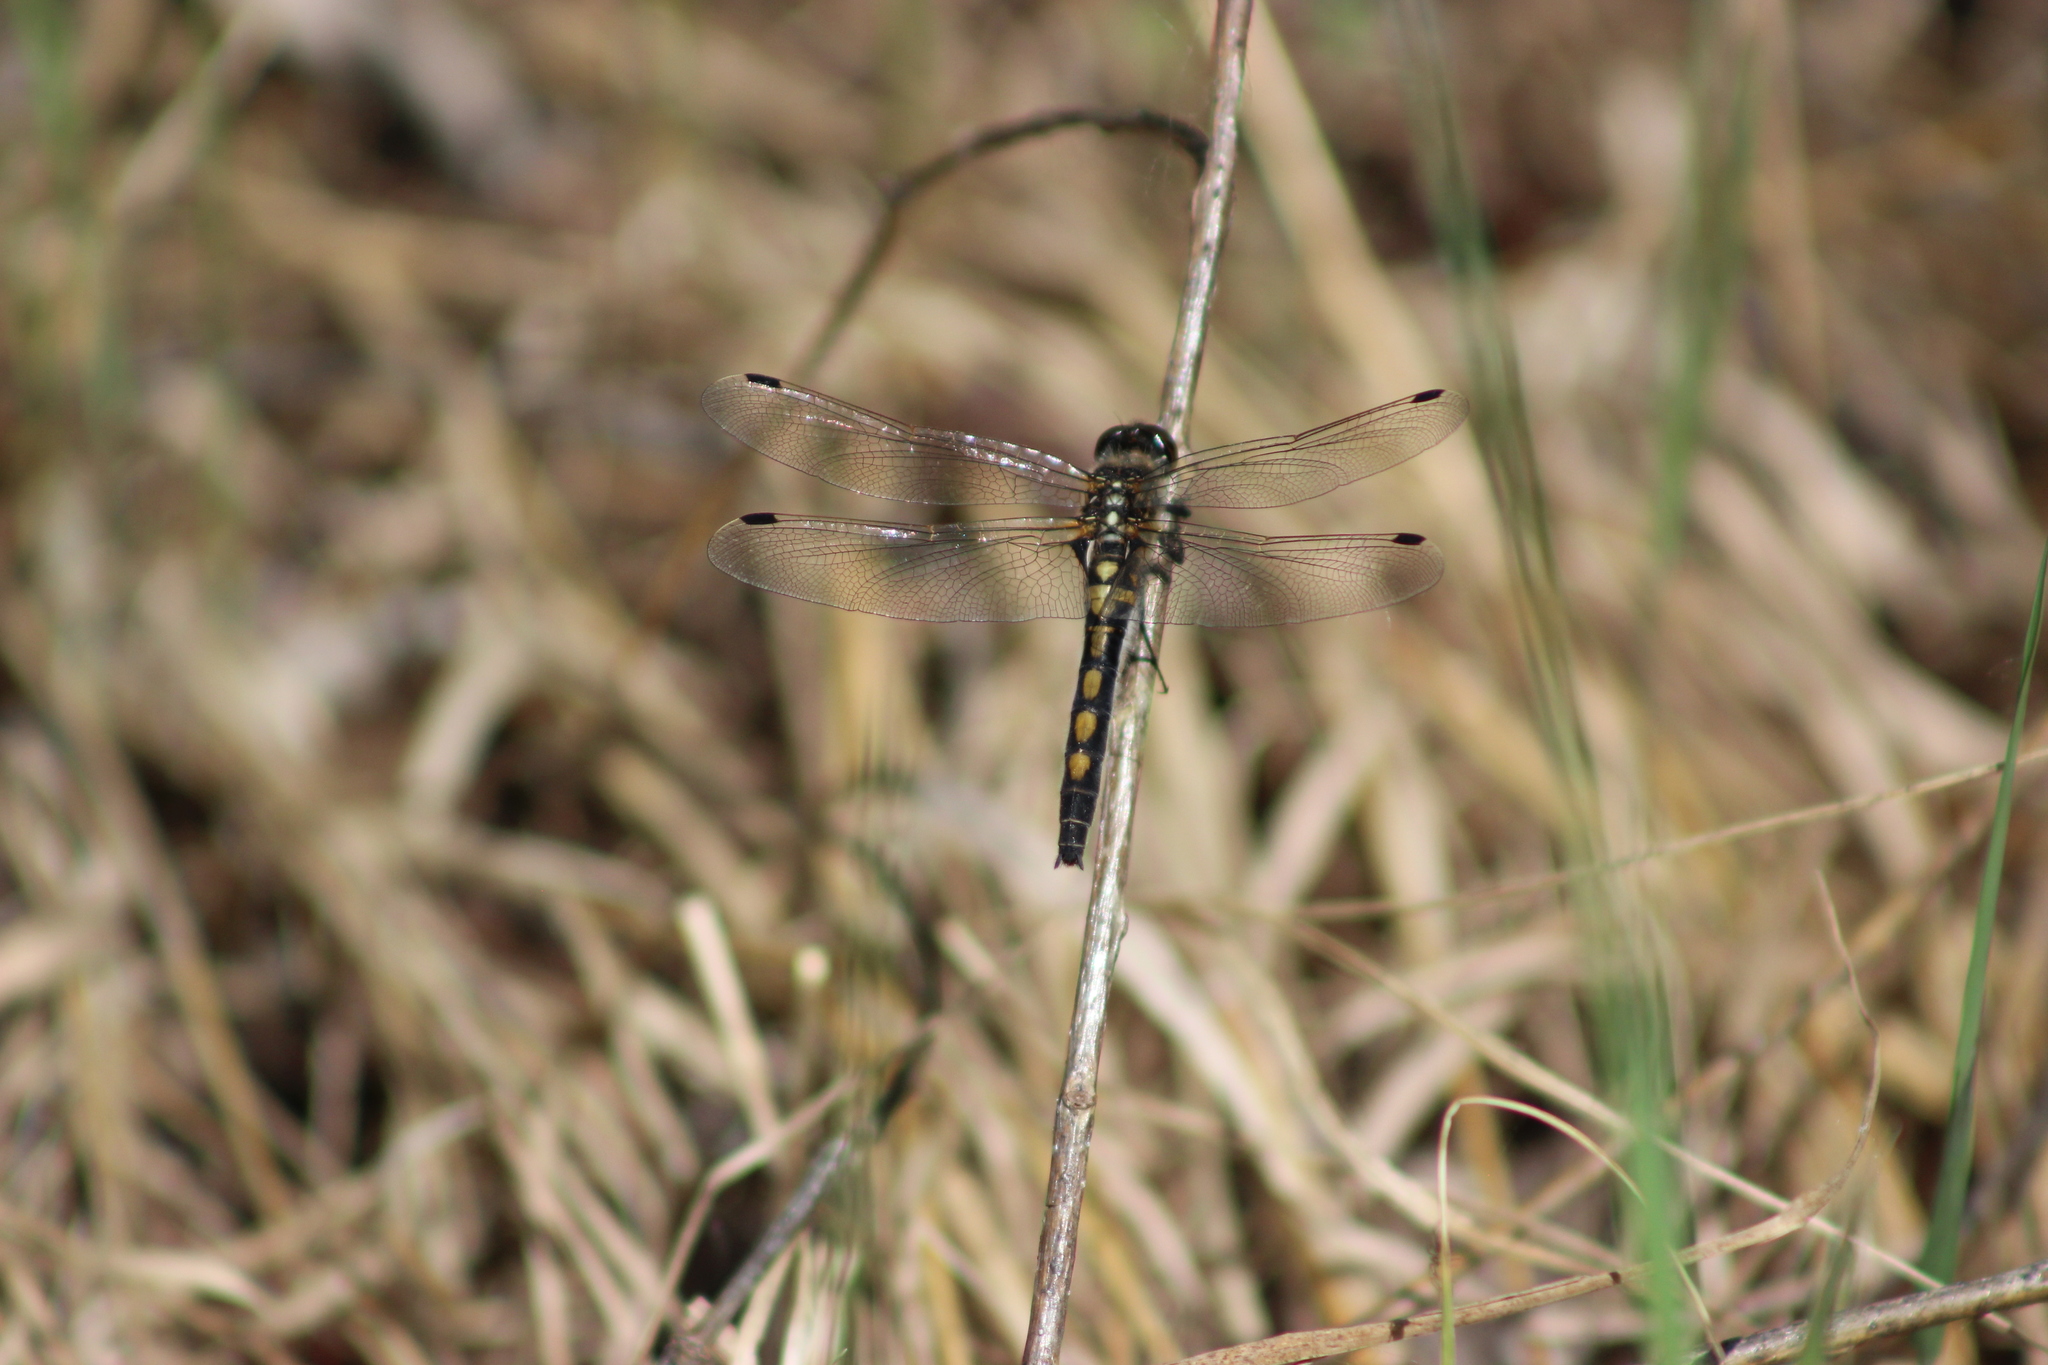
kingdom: Animalia
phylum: Arthropoda
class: Insecta
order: Odonata
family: Libellulidae
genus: Leucorrhinia
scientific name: Leucorrhinia rubicunda
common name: Ruby whiteface
